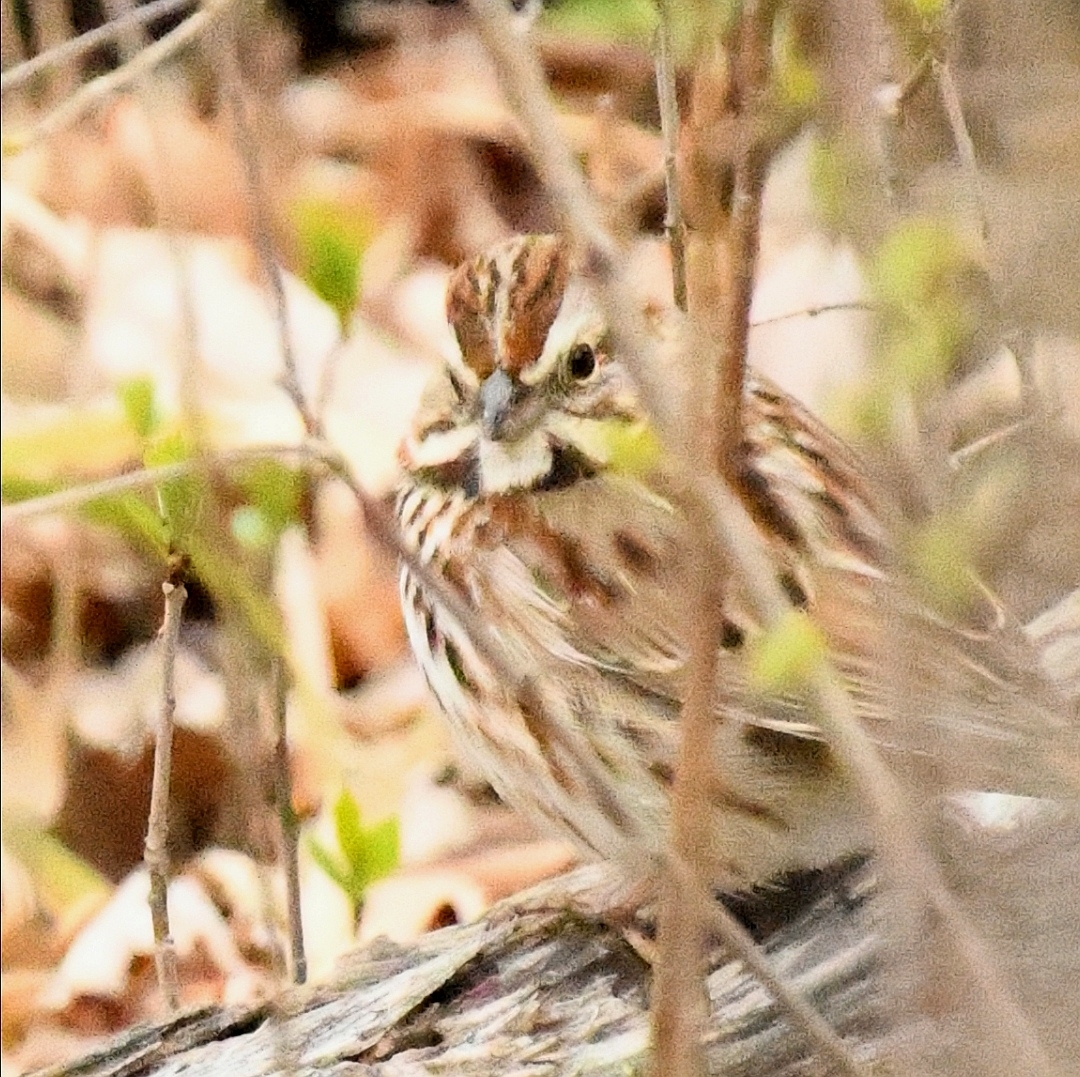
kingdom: Animalia
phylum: Chordata
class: Aves
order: Passeriformes
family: Passerellidae
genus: Melospiza
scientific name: Melospiza melodia
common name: Song sparrow
